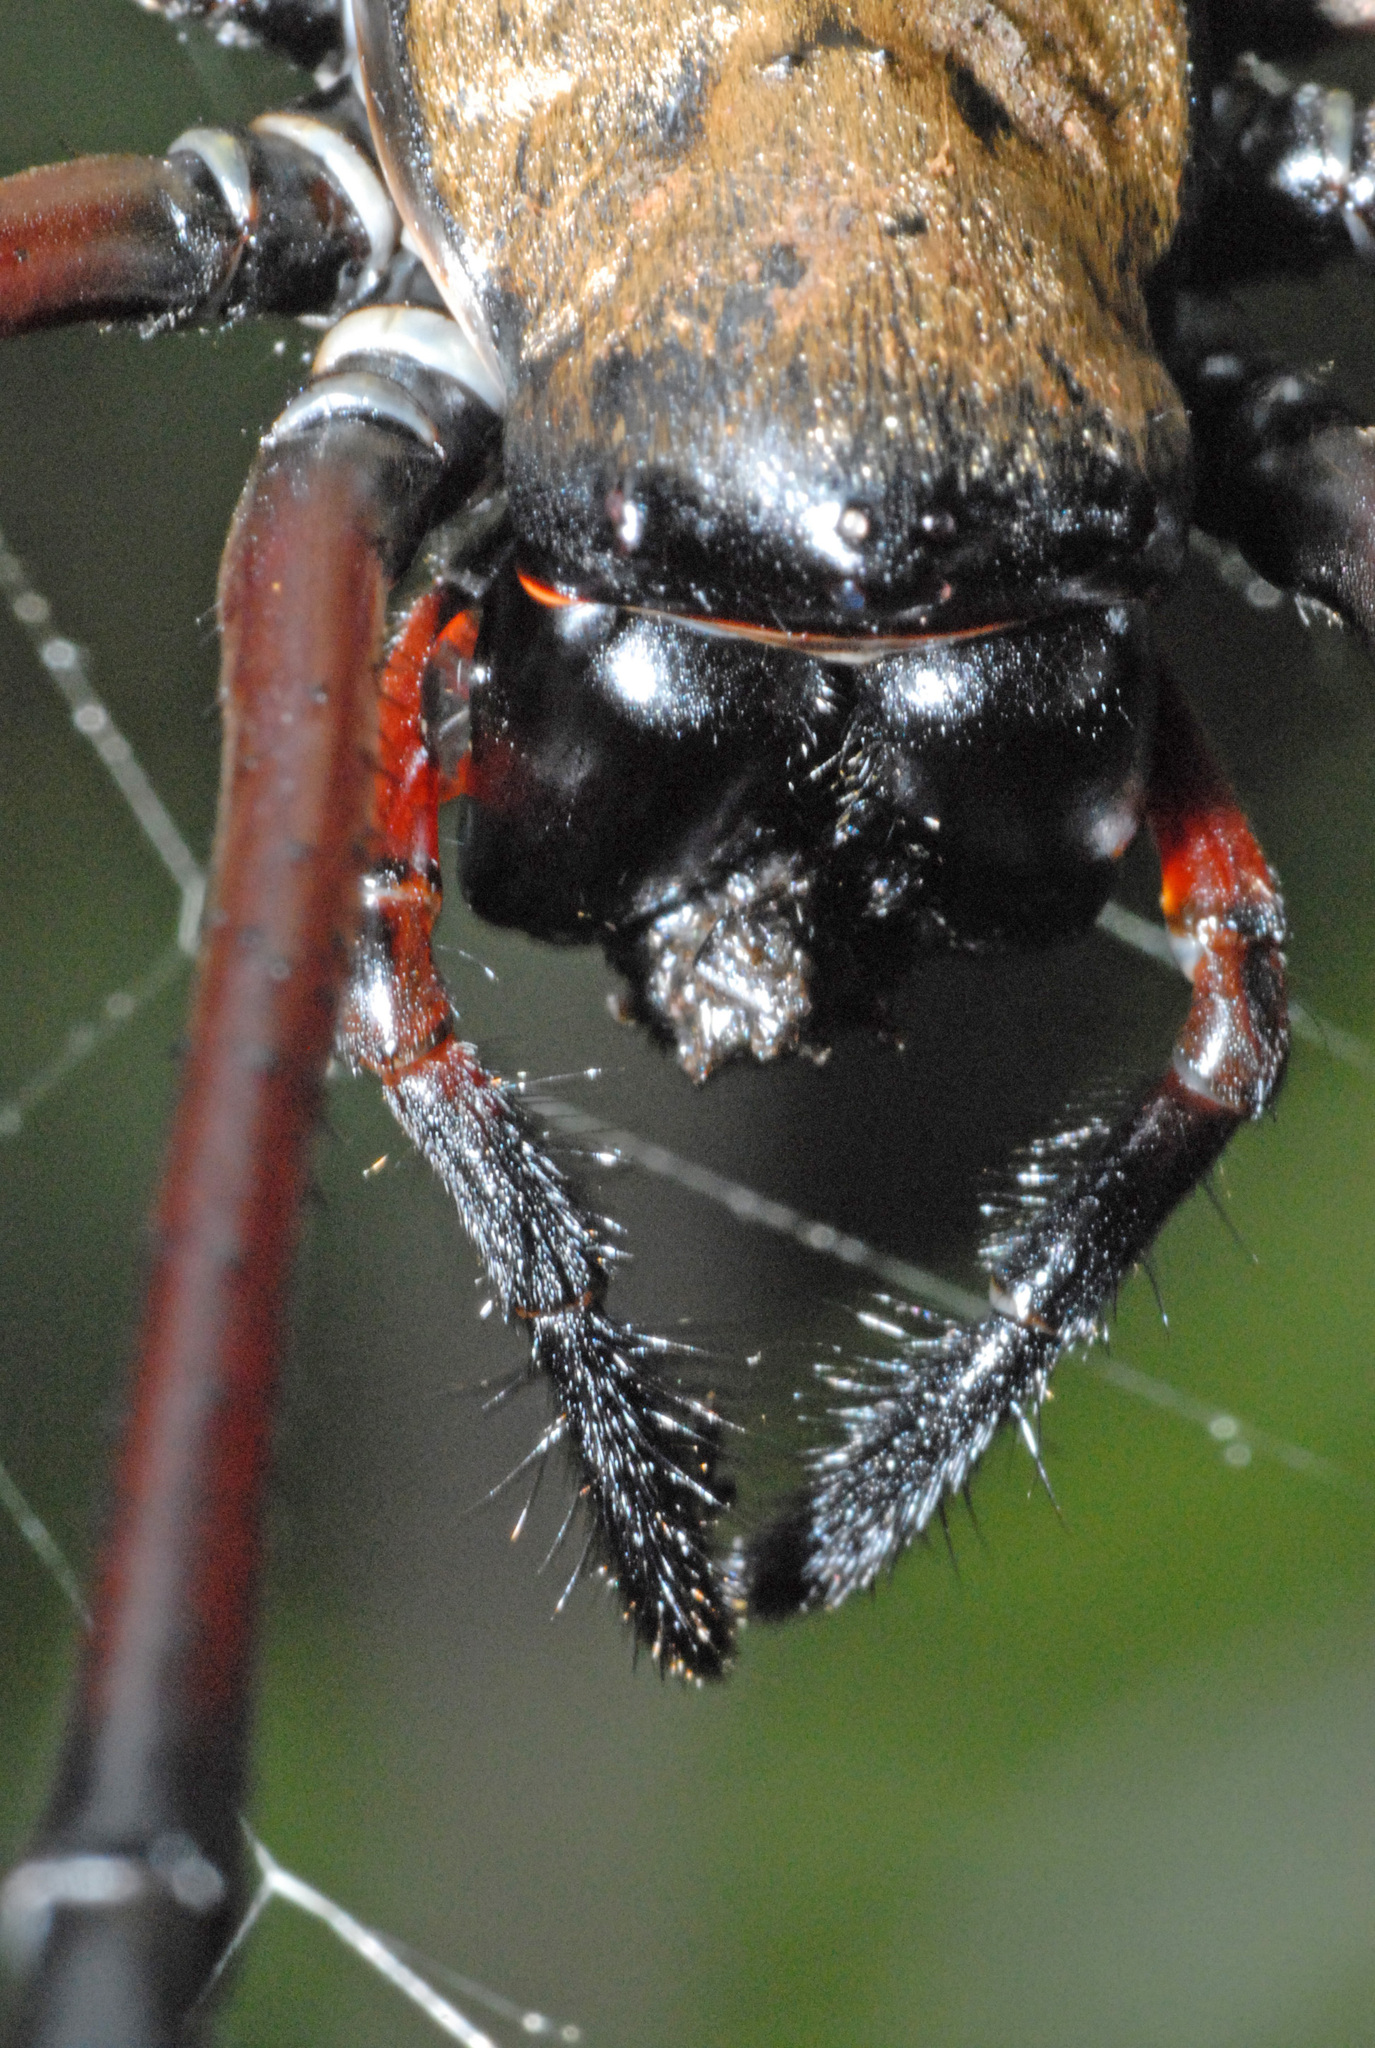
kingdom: Animalia
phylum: Arthropoda
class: Arachnida
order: Araneae
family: Araneidae
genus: Nephila
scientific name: Nephila pilipes
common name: Giant golden orb weaver
